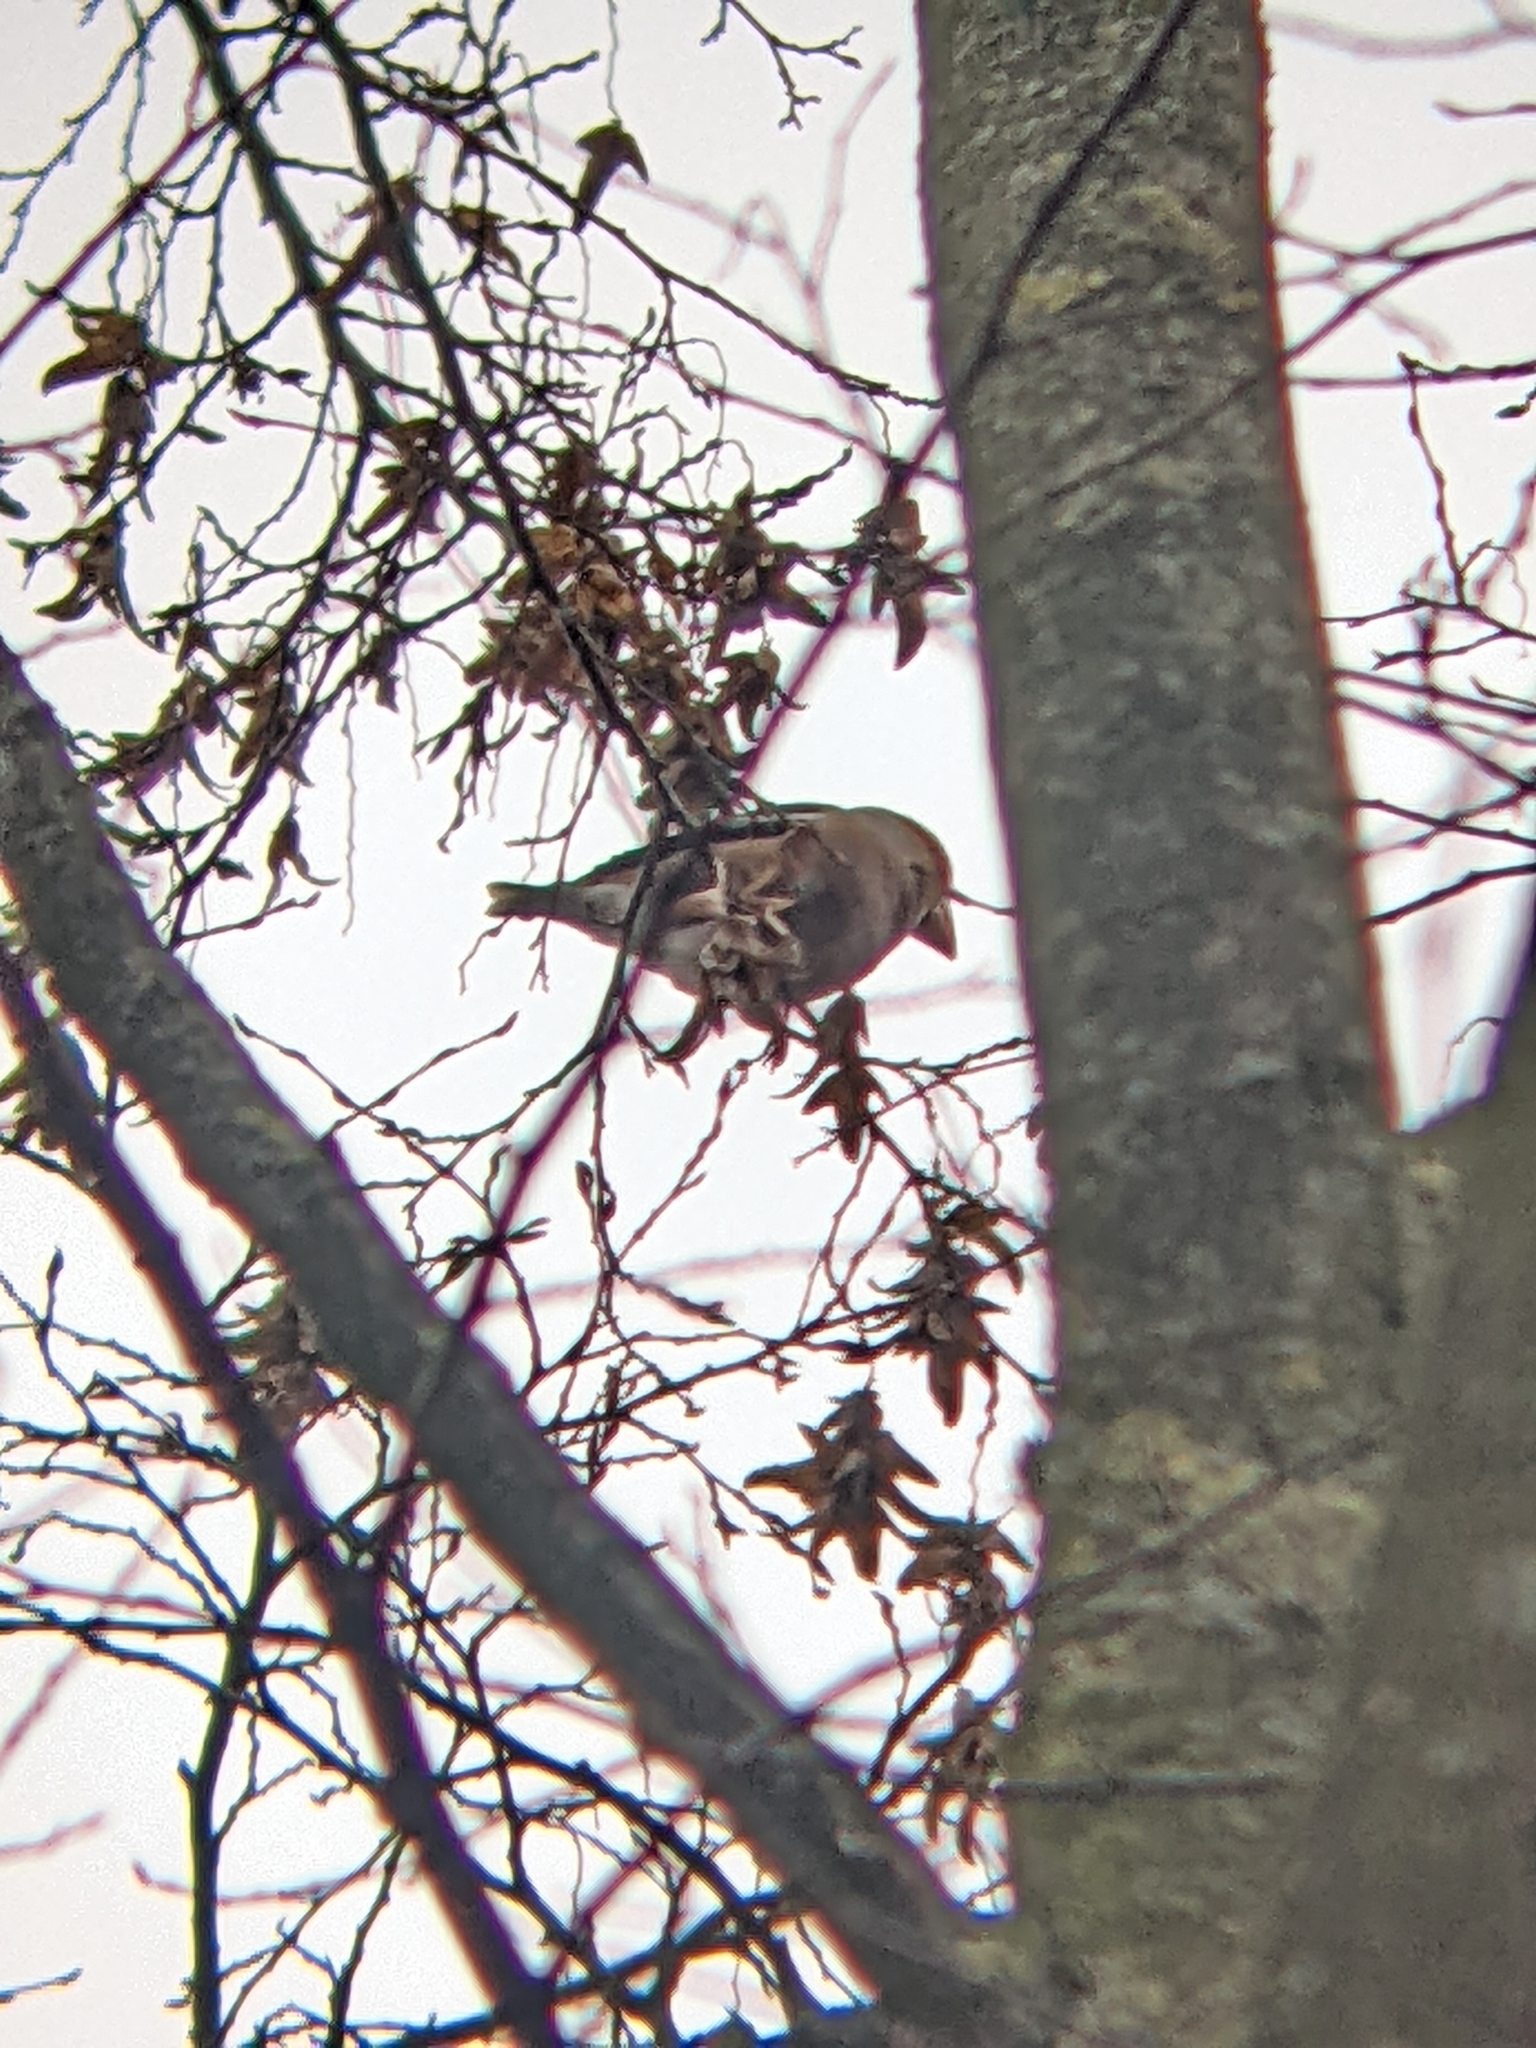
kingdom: Animalia
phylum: Chordata
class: Aves
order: Passeriformes
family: Fringillidae
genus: Coccothraustes
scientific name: Coccothraustes coccothraustes
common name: Hawfinch
